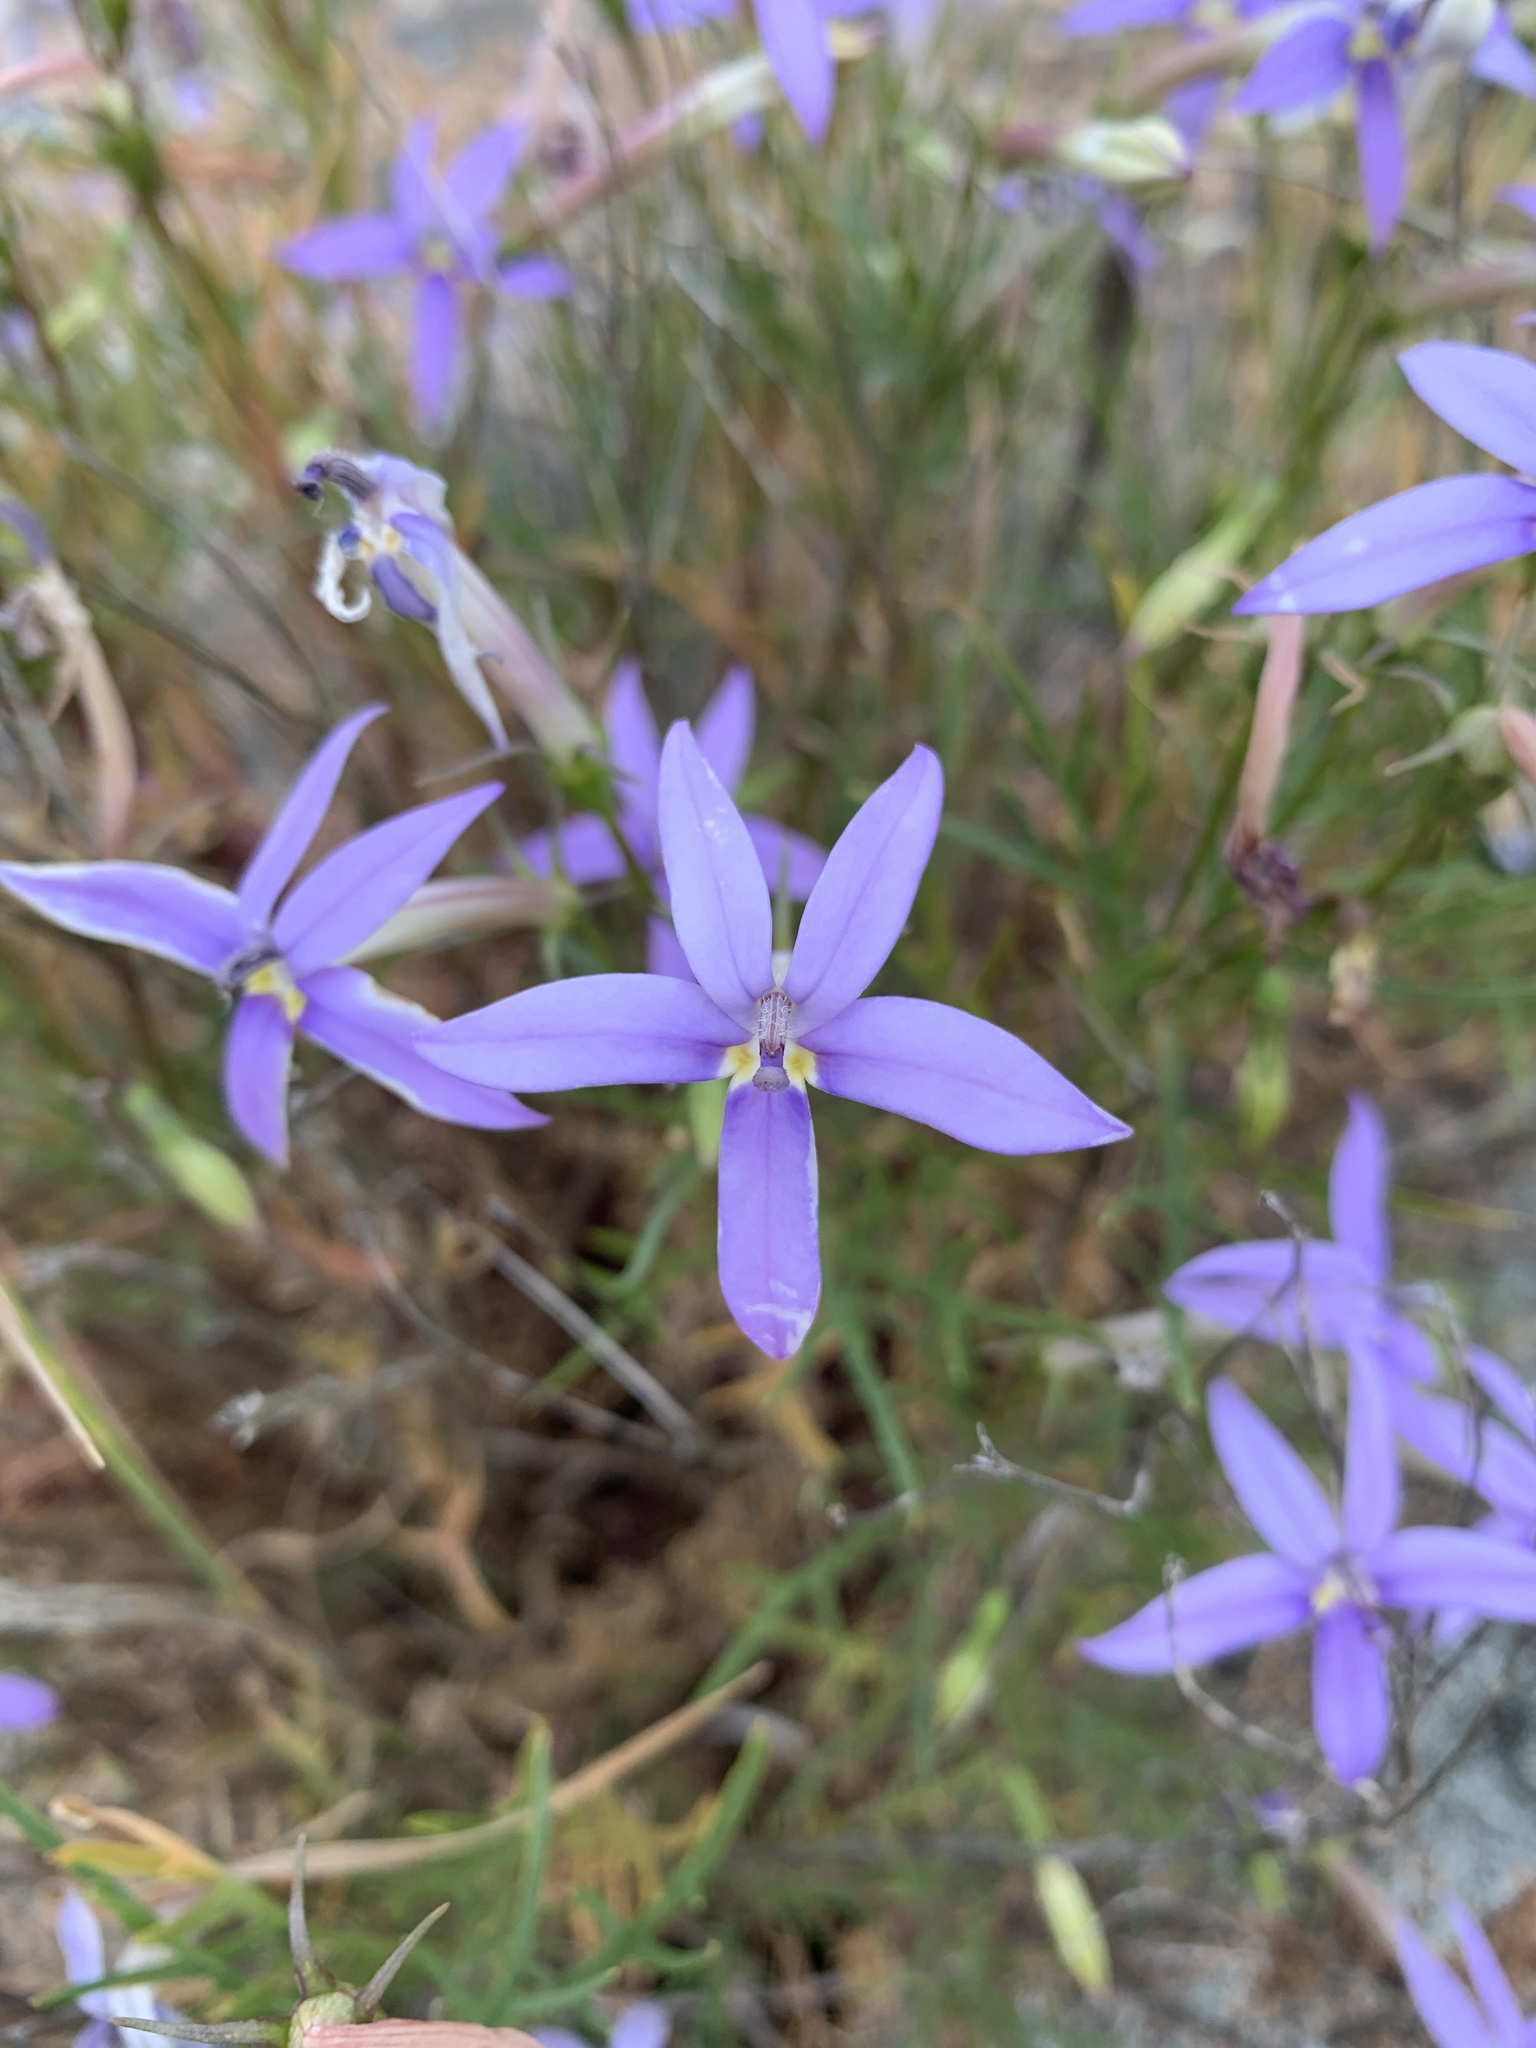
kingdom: Plantae
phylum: Tracheophyta
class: Magnoliopsida
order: Asterales
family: Campanulaceae
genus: Lithotoma
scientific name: Lithotoma axillaris
